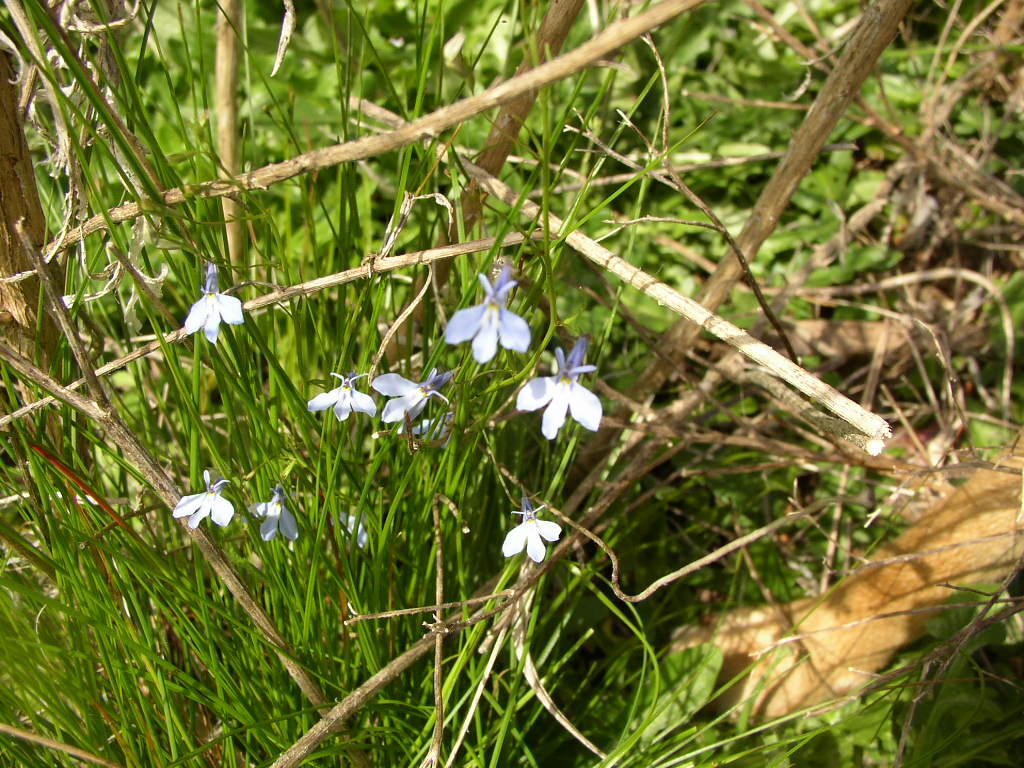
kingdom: Plantae
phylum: Tracheophyta
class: Magnoliopsida
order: Asterales
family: Campanulaceae
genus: Lobelia
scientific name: Lobelia erinus
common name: Edging lobelia
